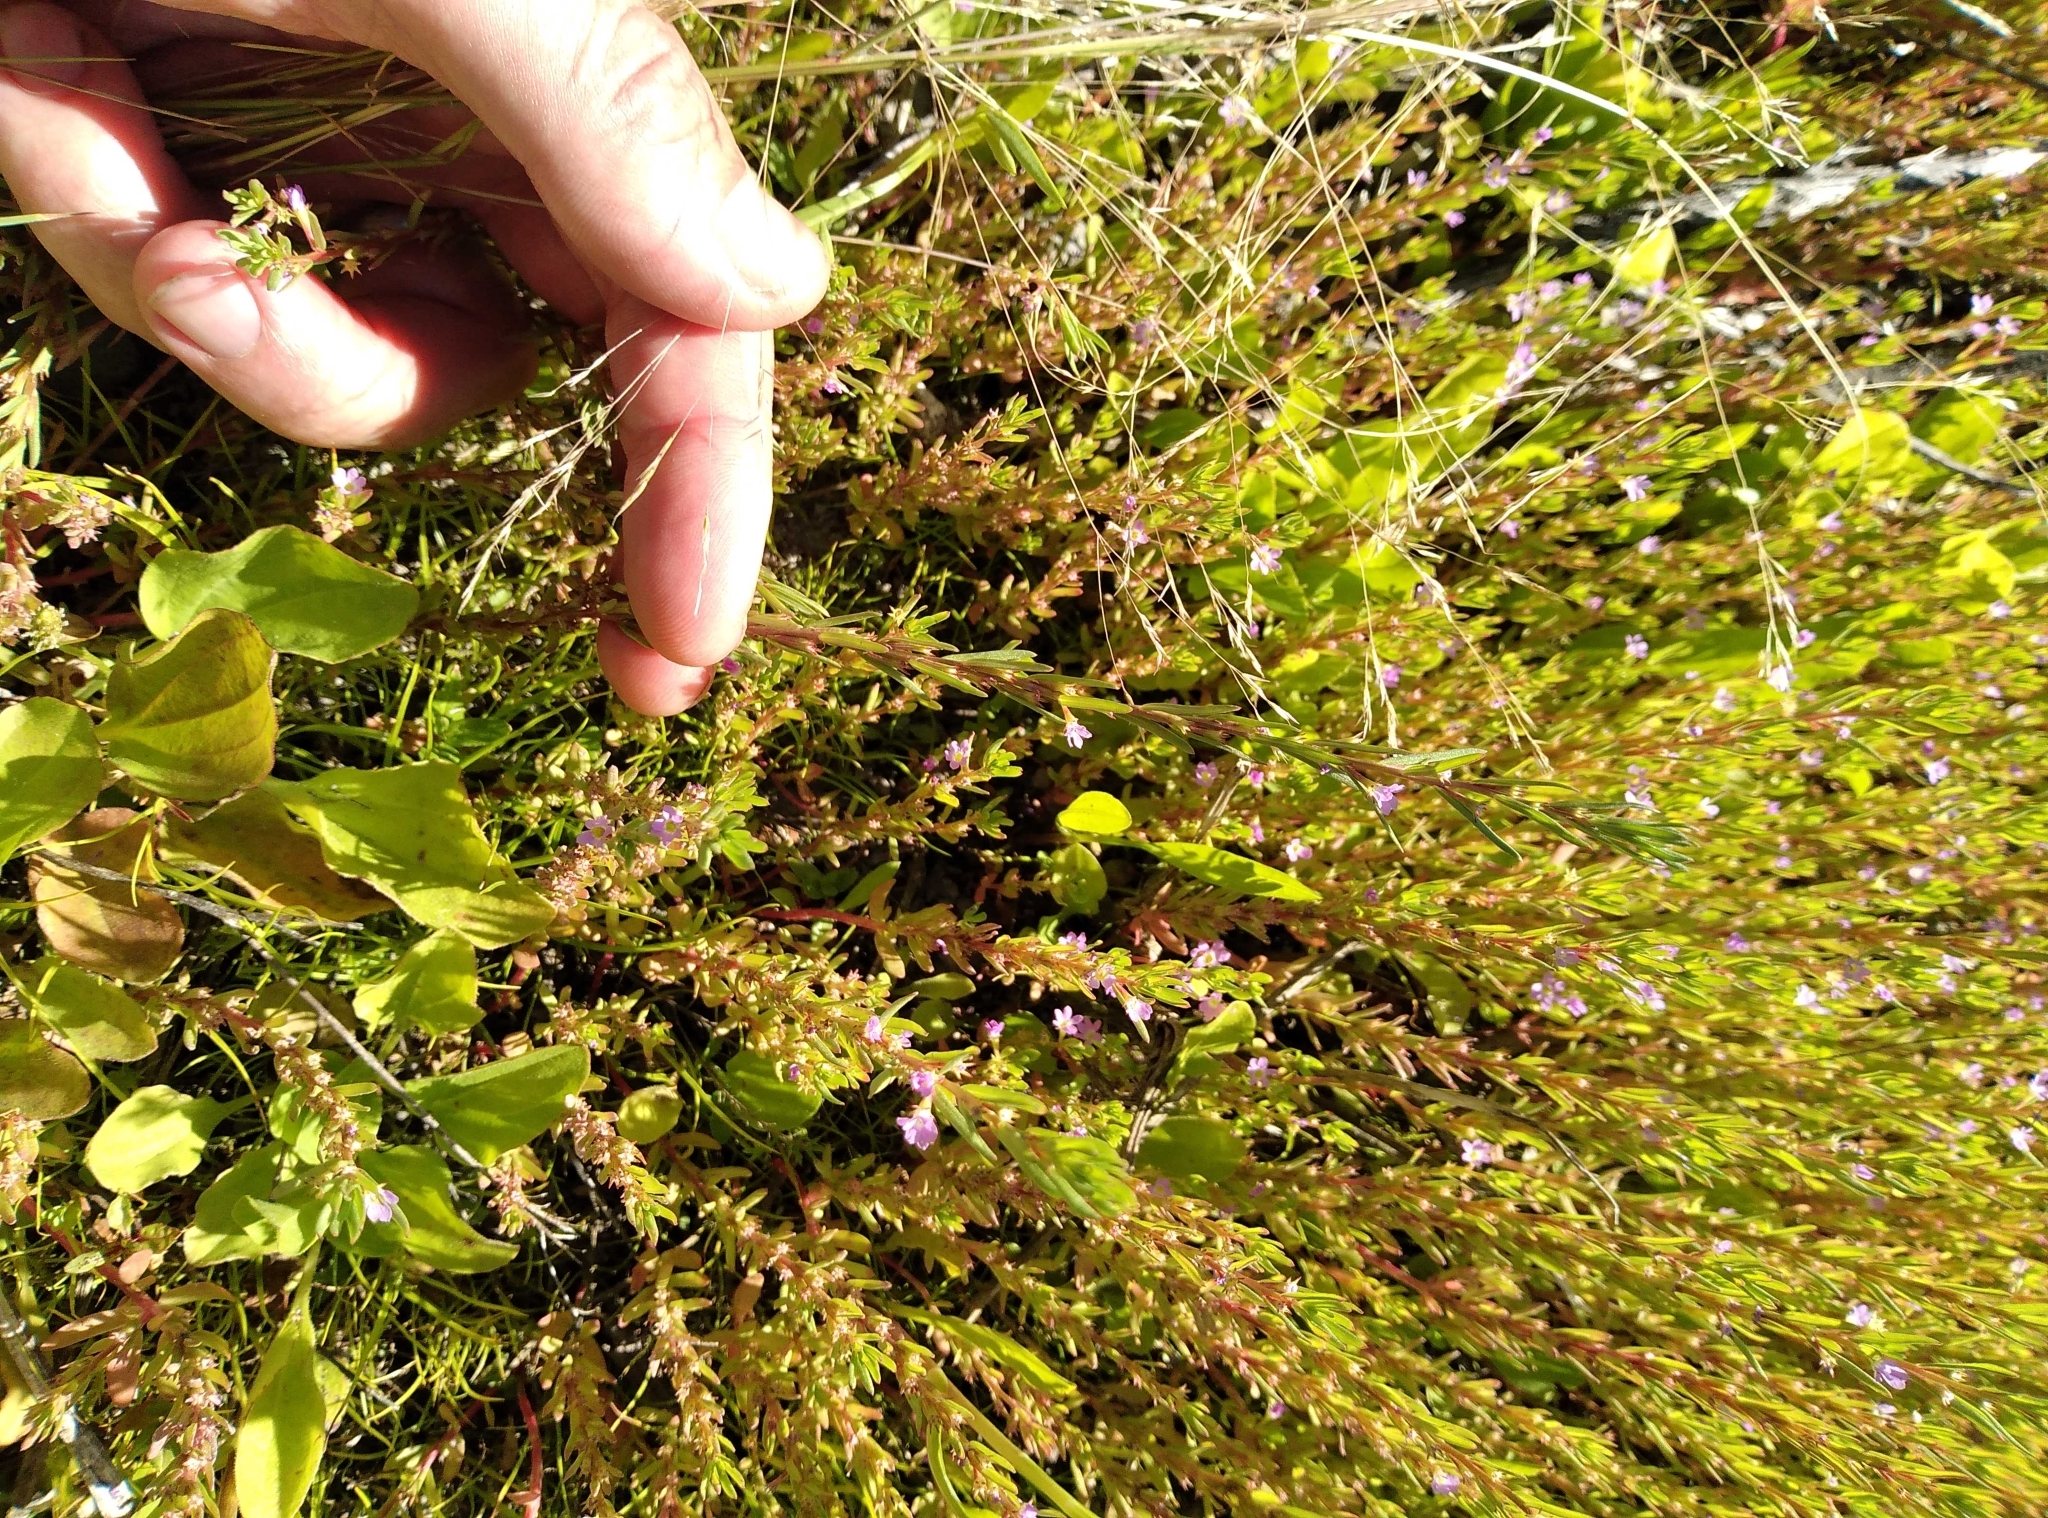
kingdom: Plantae
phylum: Tracheophyta
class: Magnoliopsida
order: Myrtales
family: Lythraceae
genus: Lythrum
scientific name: Lythrum hyssopifolia
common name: Grass-poly
